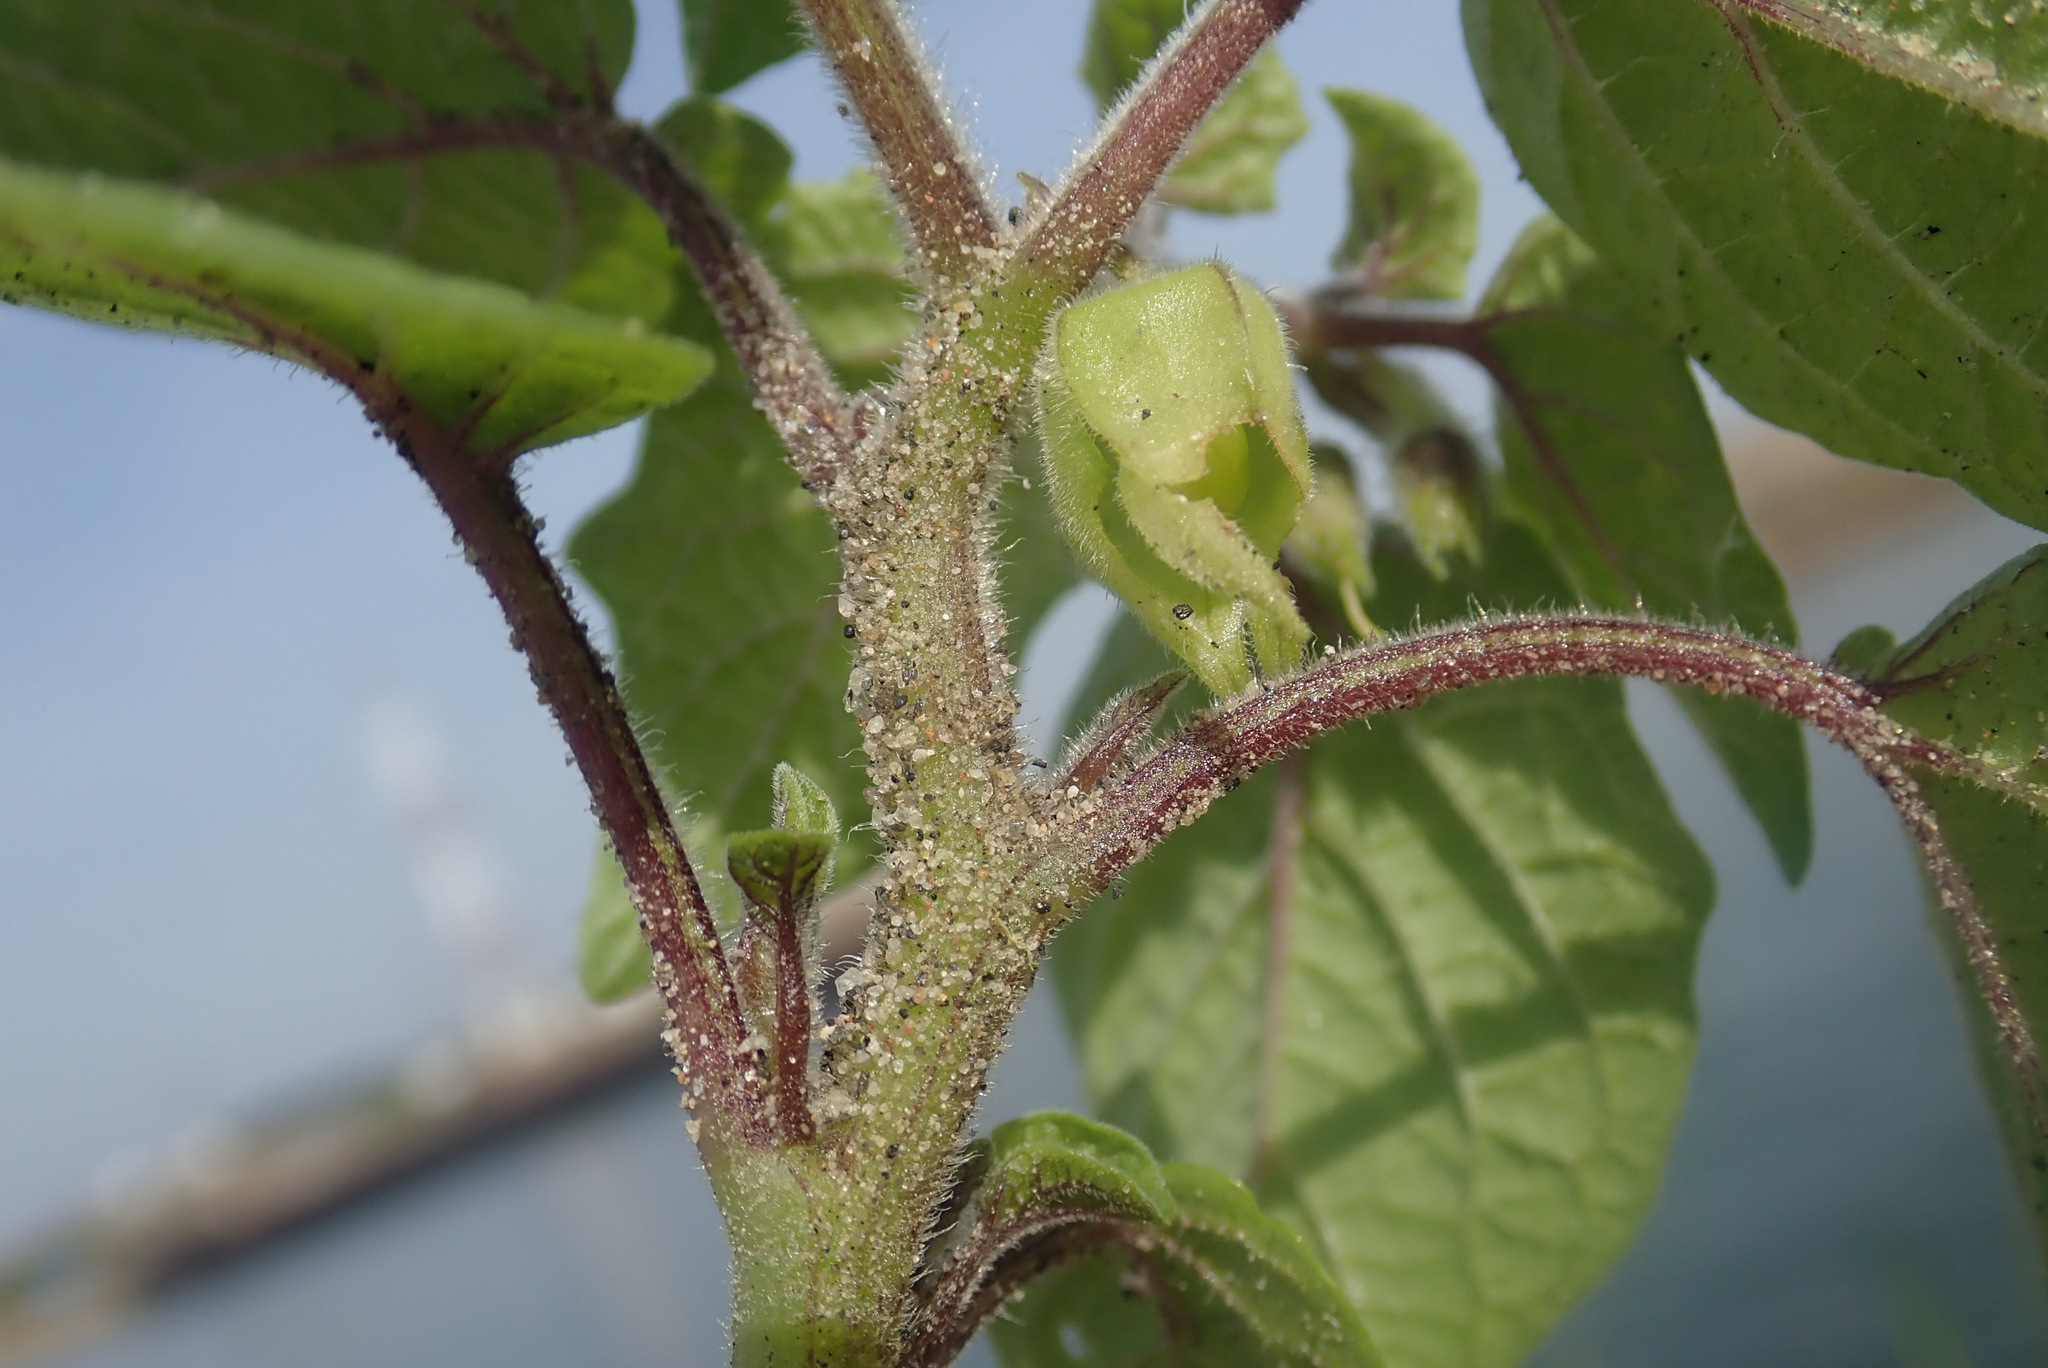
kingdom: Plantae
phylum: Tracheophyta
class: Magnoliopsida
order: Solanales
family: Solanaceae
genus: Physalis
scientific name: Physalis grisea
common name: Dwarf cape-gooseberry
